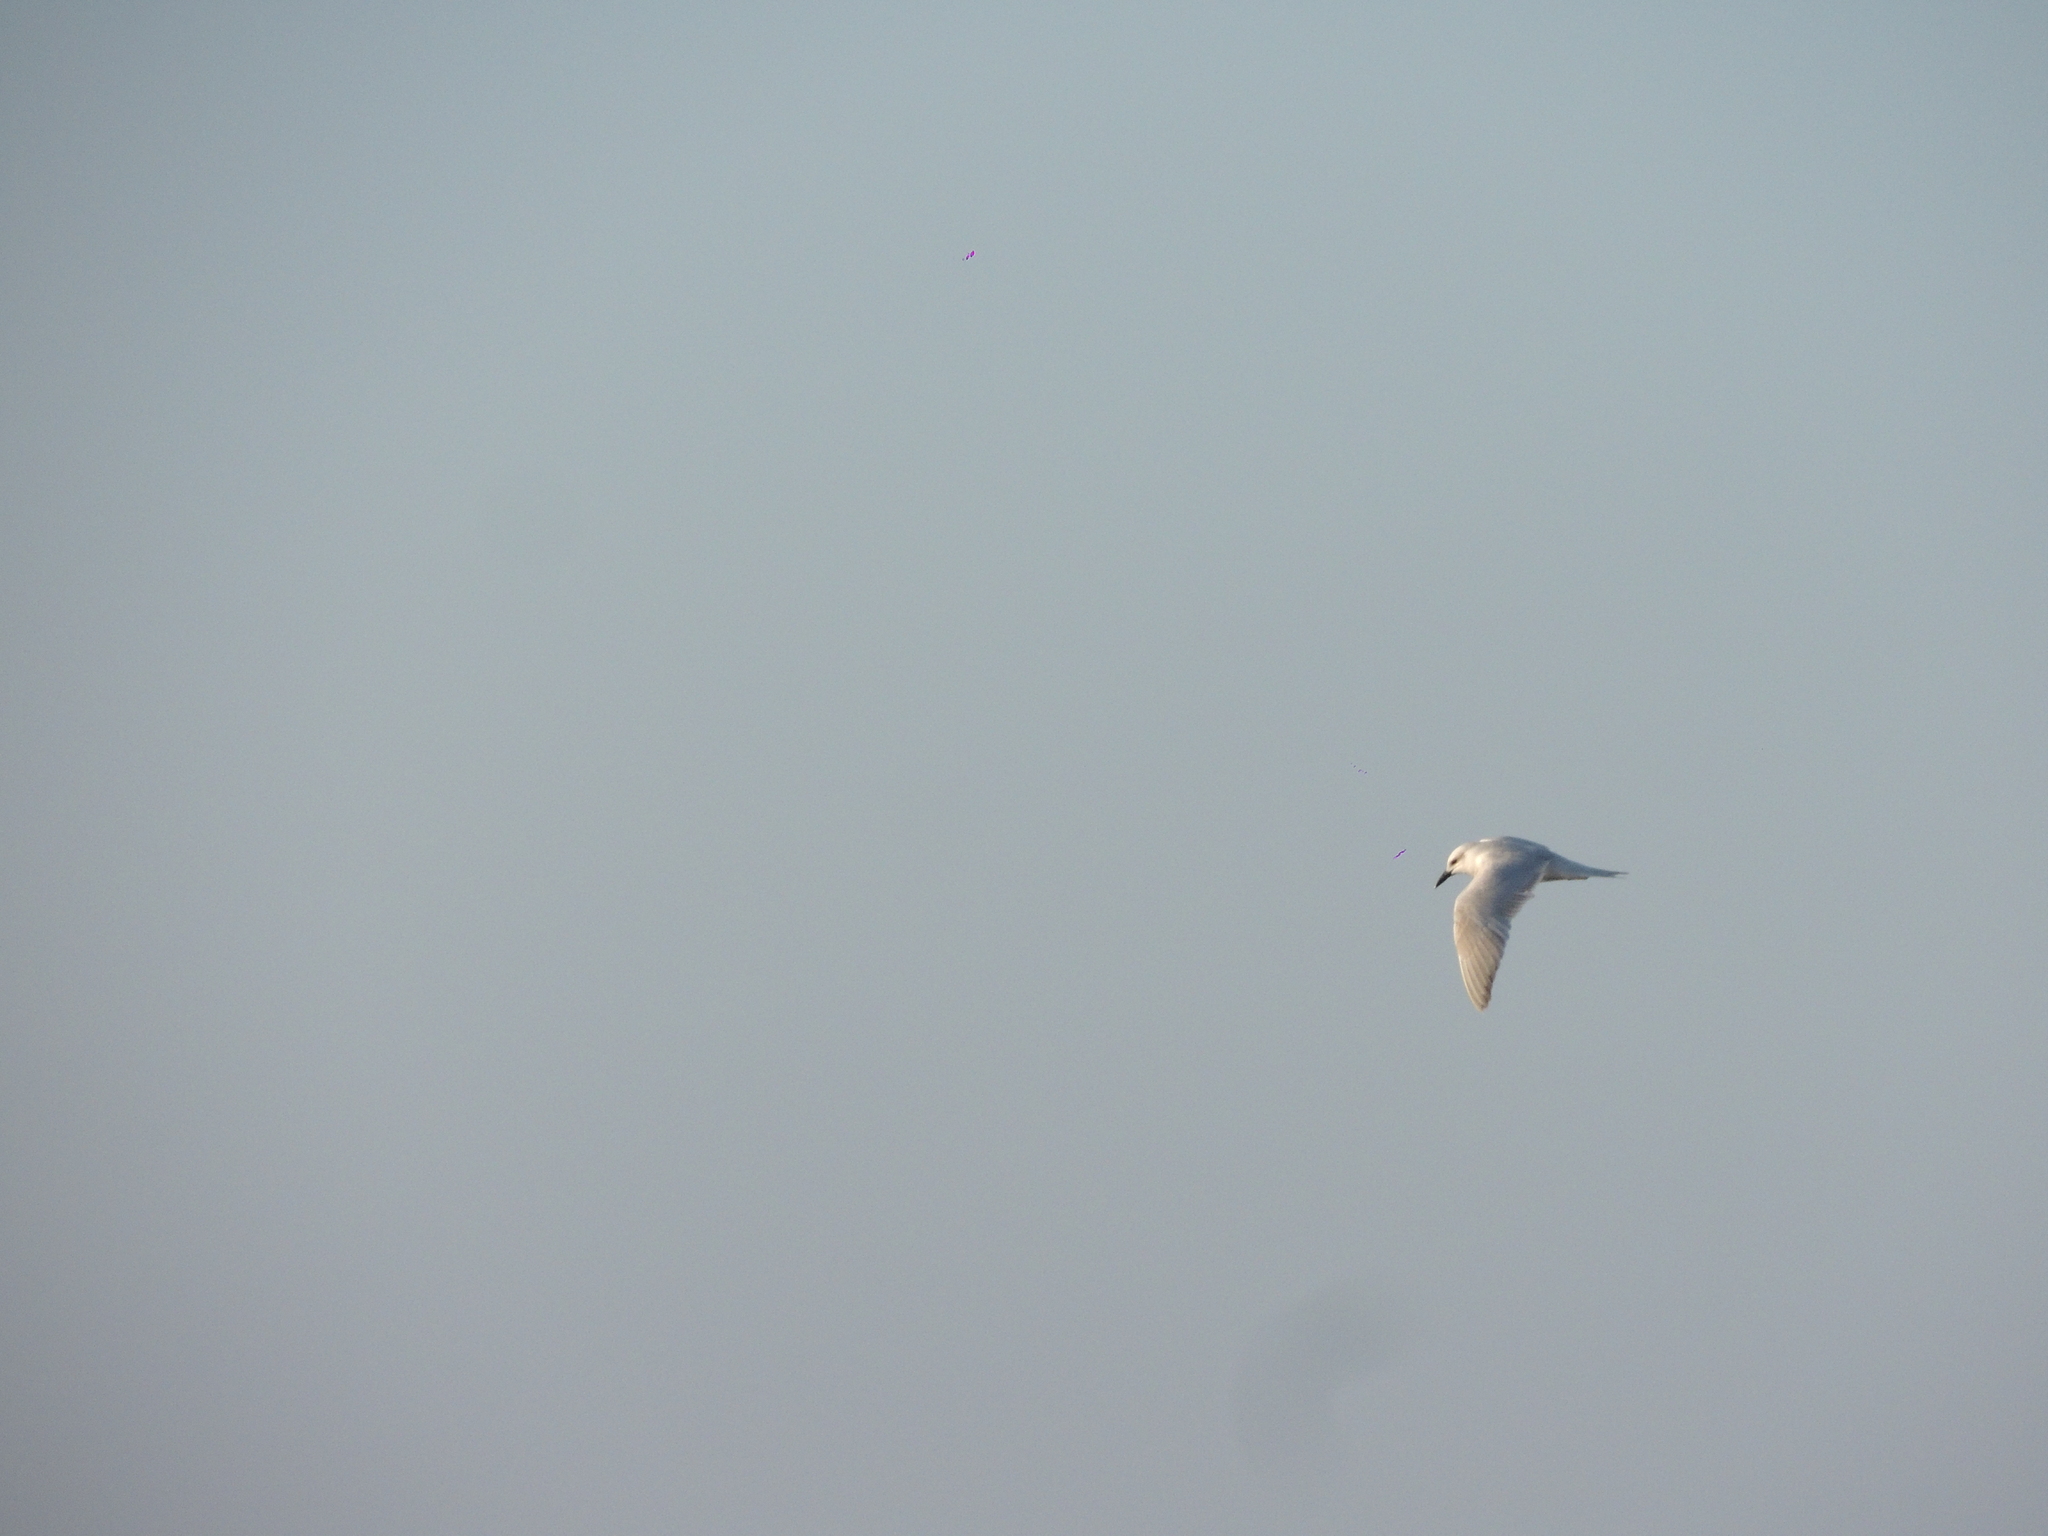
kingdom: Animalia
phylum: Chordata
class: Aves
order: Charadriiformes
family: Laridae
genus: Gelochelidon
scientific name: Gelochelidon nilotica
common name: Gull-billed tern
